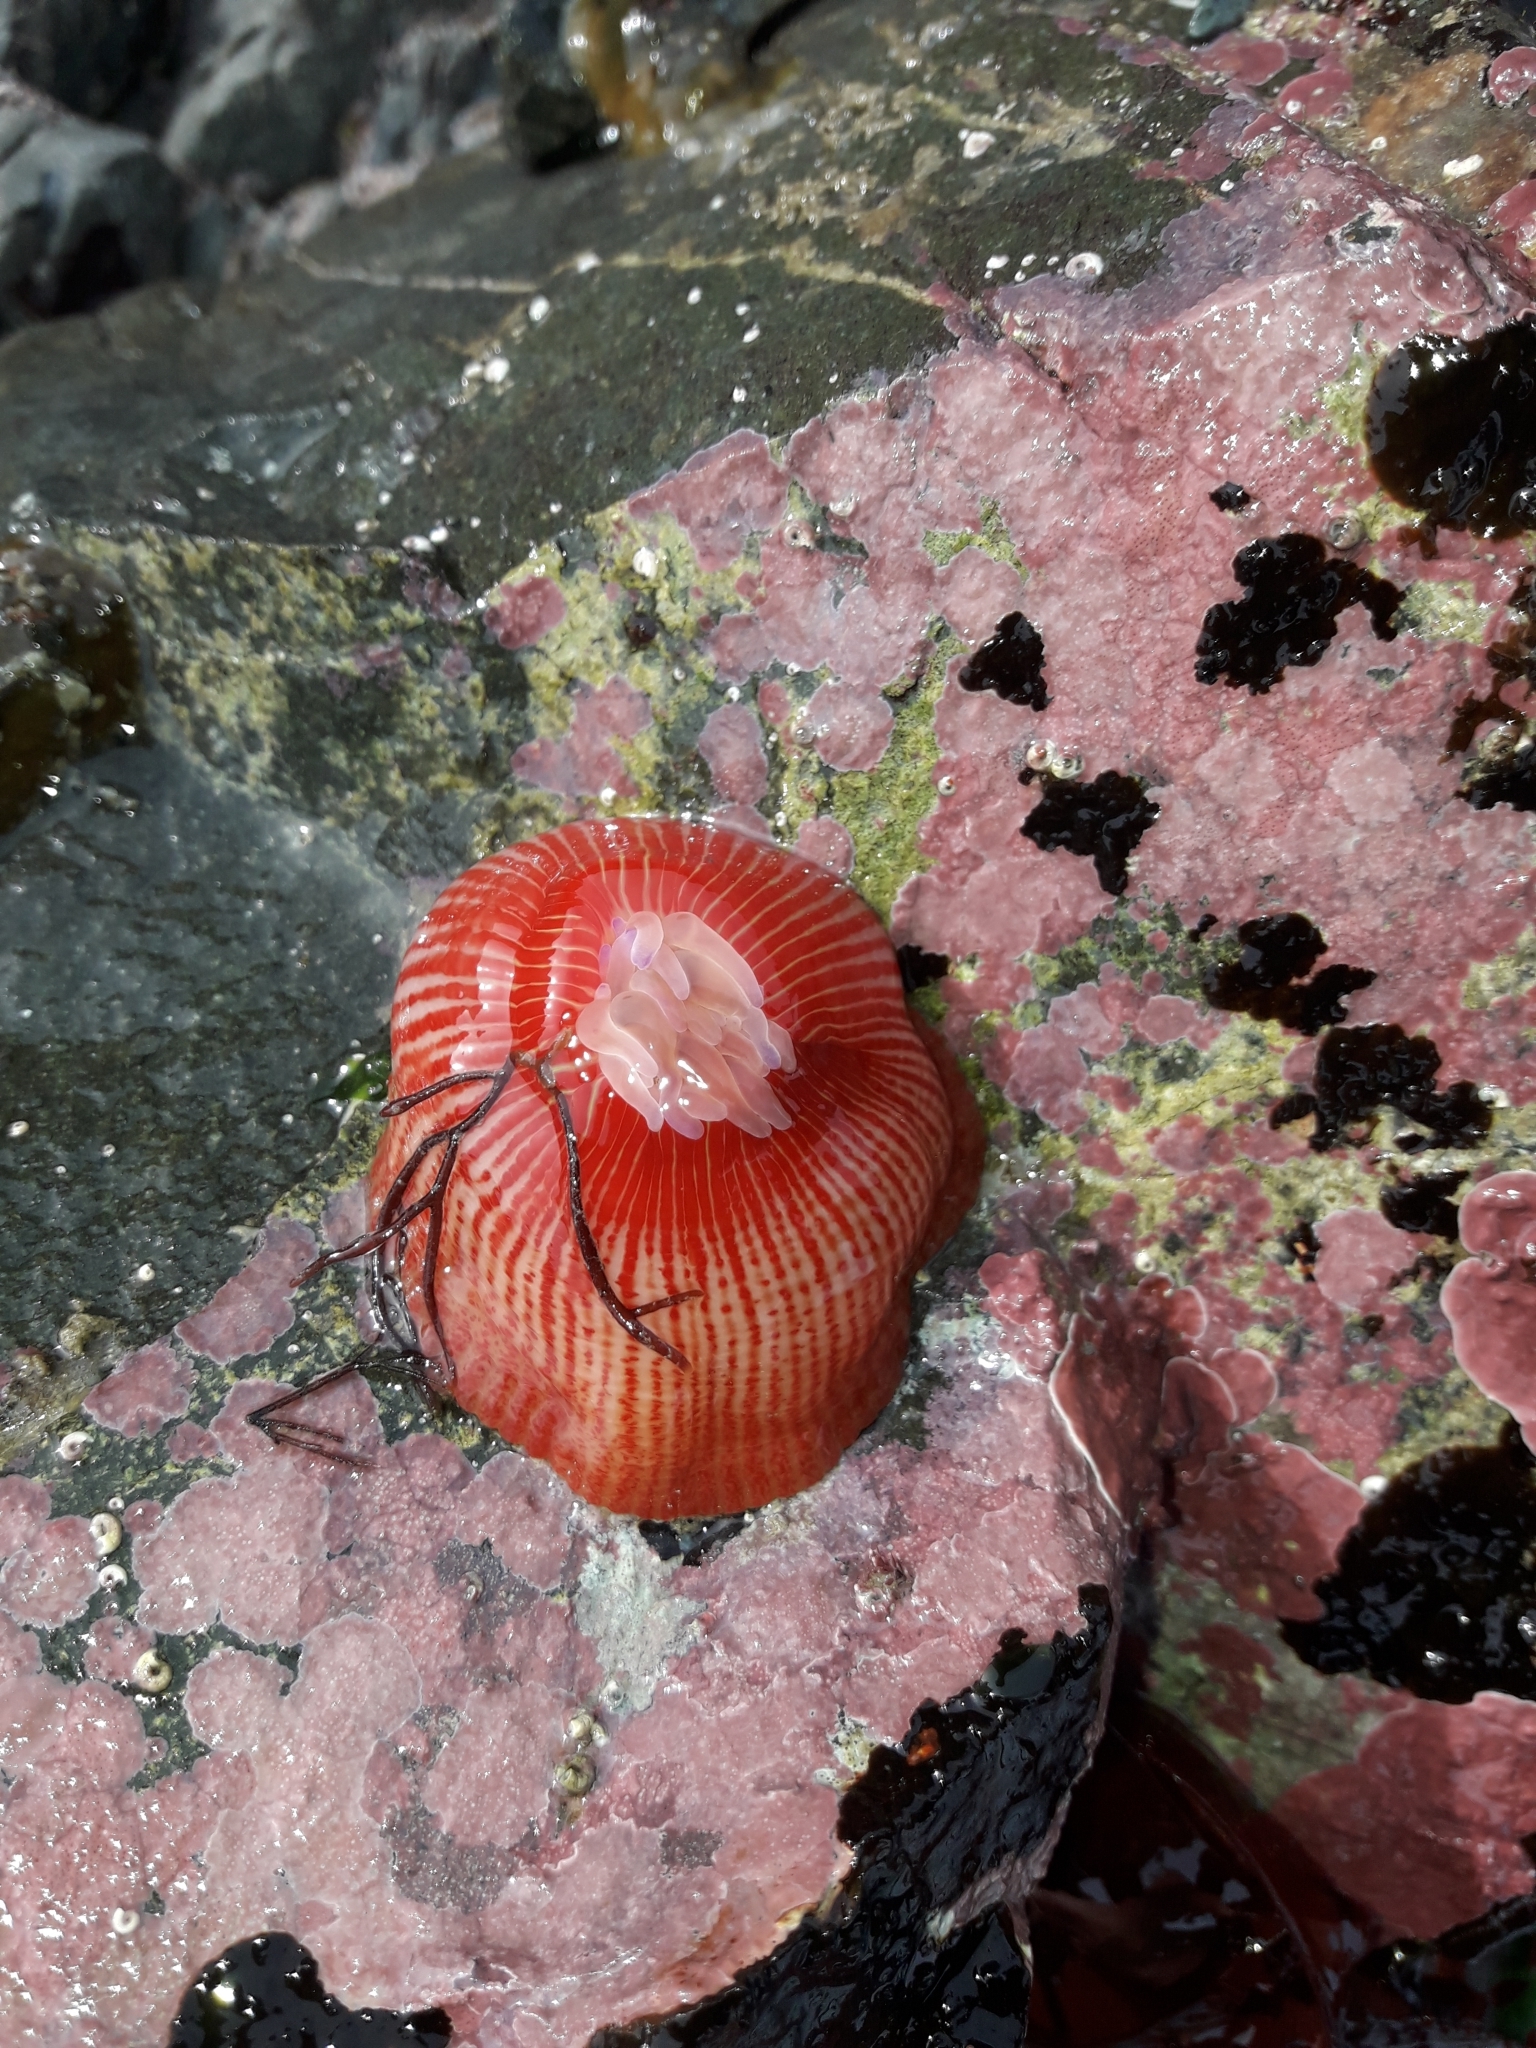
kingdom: Animalia
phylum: Cnidaria
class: Anthozoa
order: Actiniaria
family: Actiniidae
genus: Epiactis
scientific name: Epiactis thompsoni
